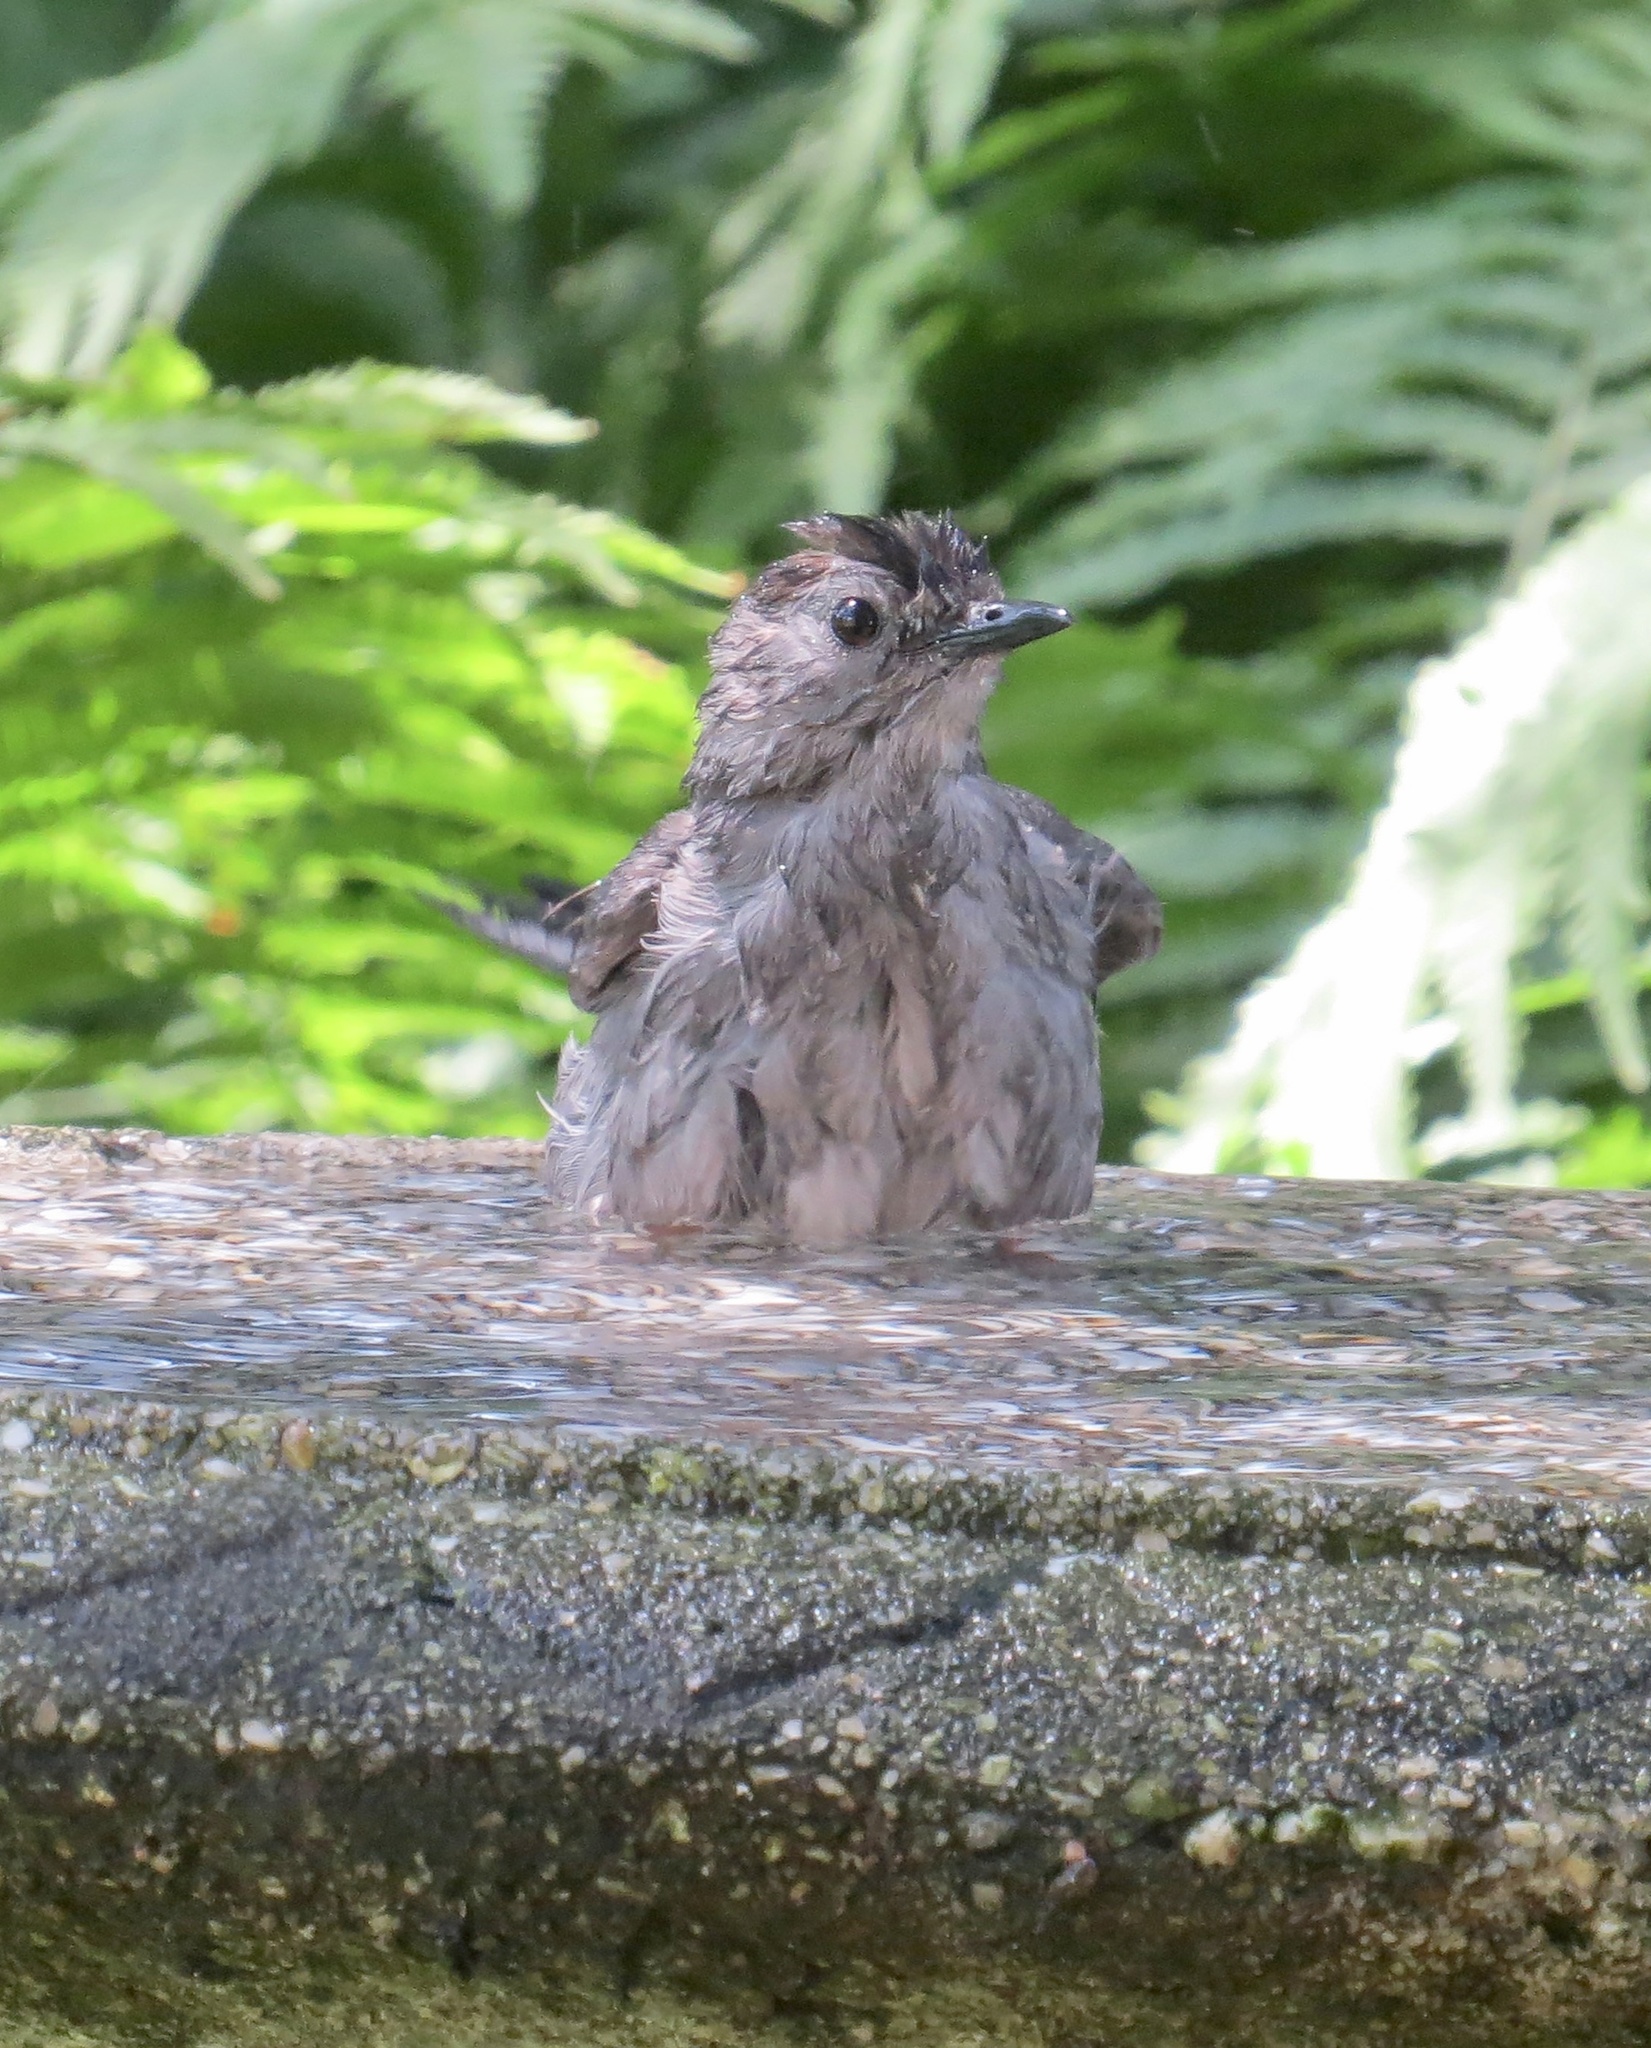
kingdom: Animalia
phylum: Chordata
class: Aves
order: Passeriformes
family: Mimidae
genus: Dumetella
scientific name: Dumetella carolinensis
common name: Gray catbird
